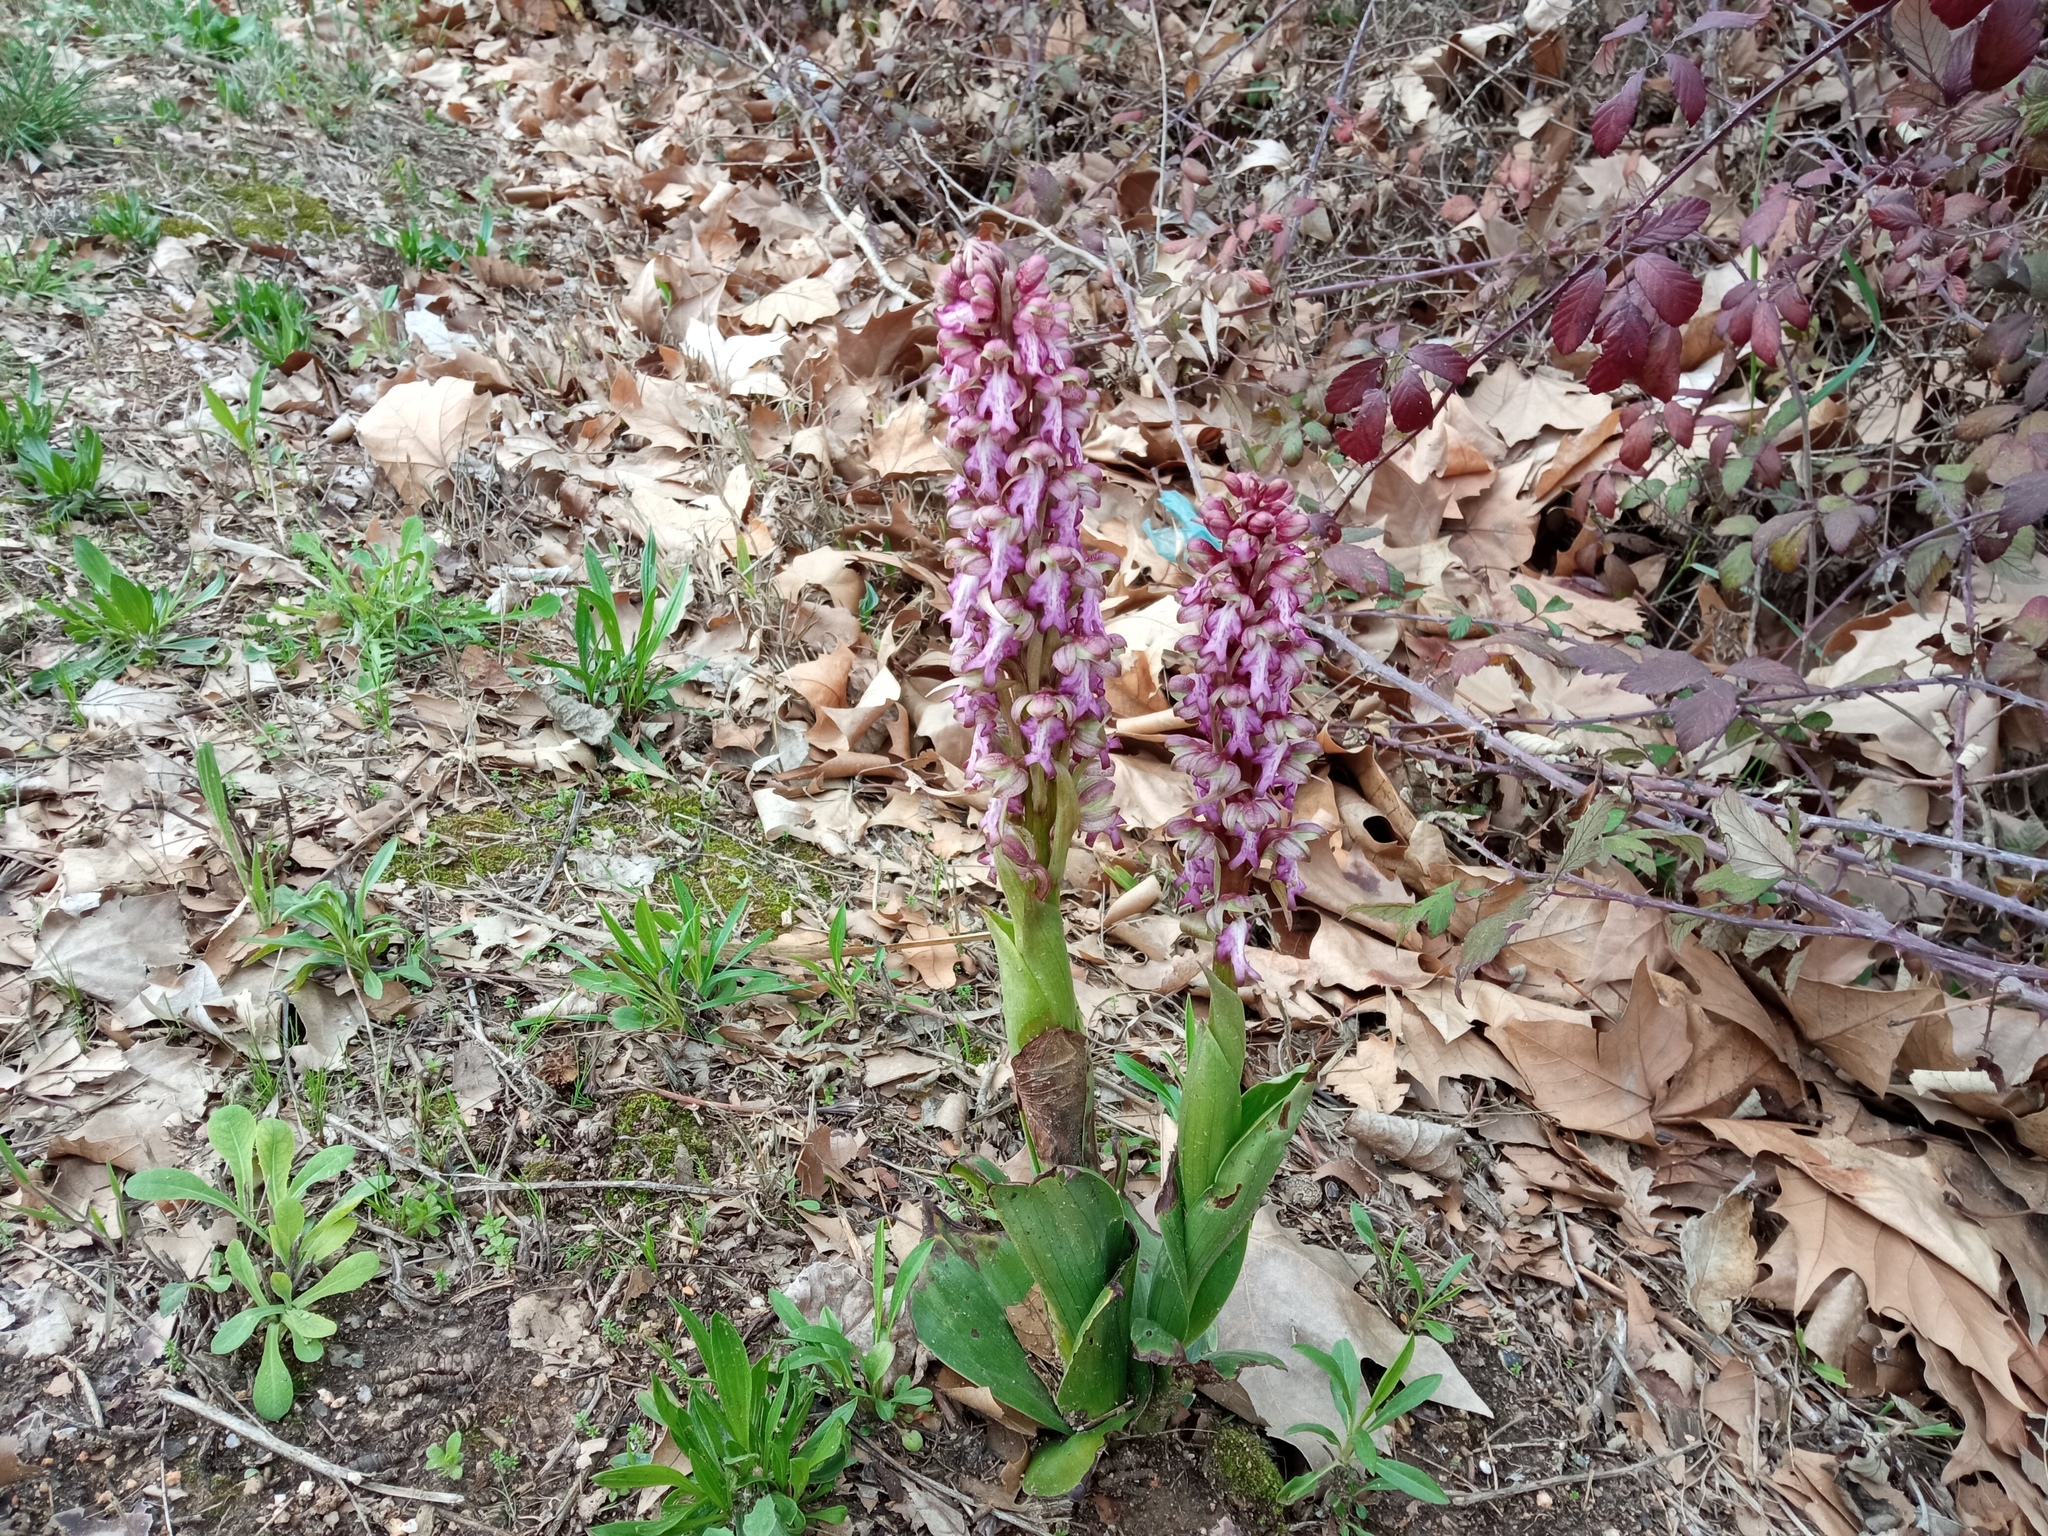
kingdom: Plantae
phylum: Tracheophyta
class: Liliopsida
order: Asparagales
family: Orchidaceae
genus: Himantoglossum
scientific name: Himantoglossum robertianum
